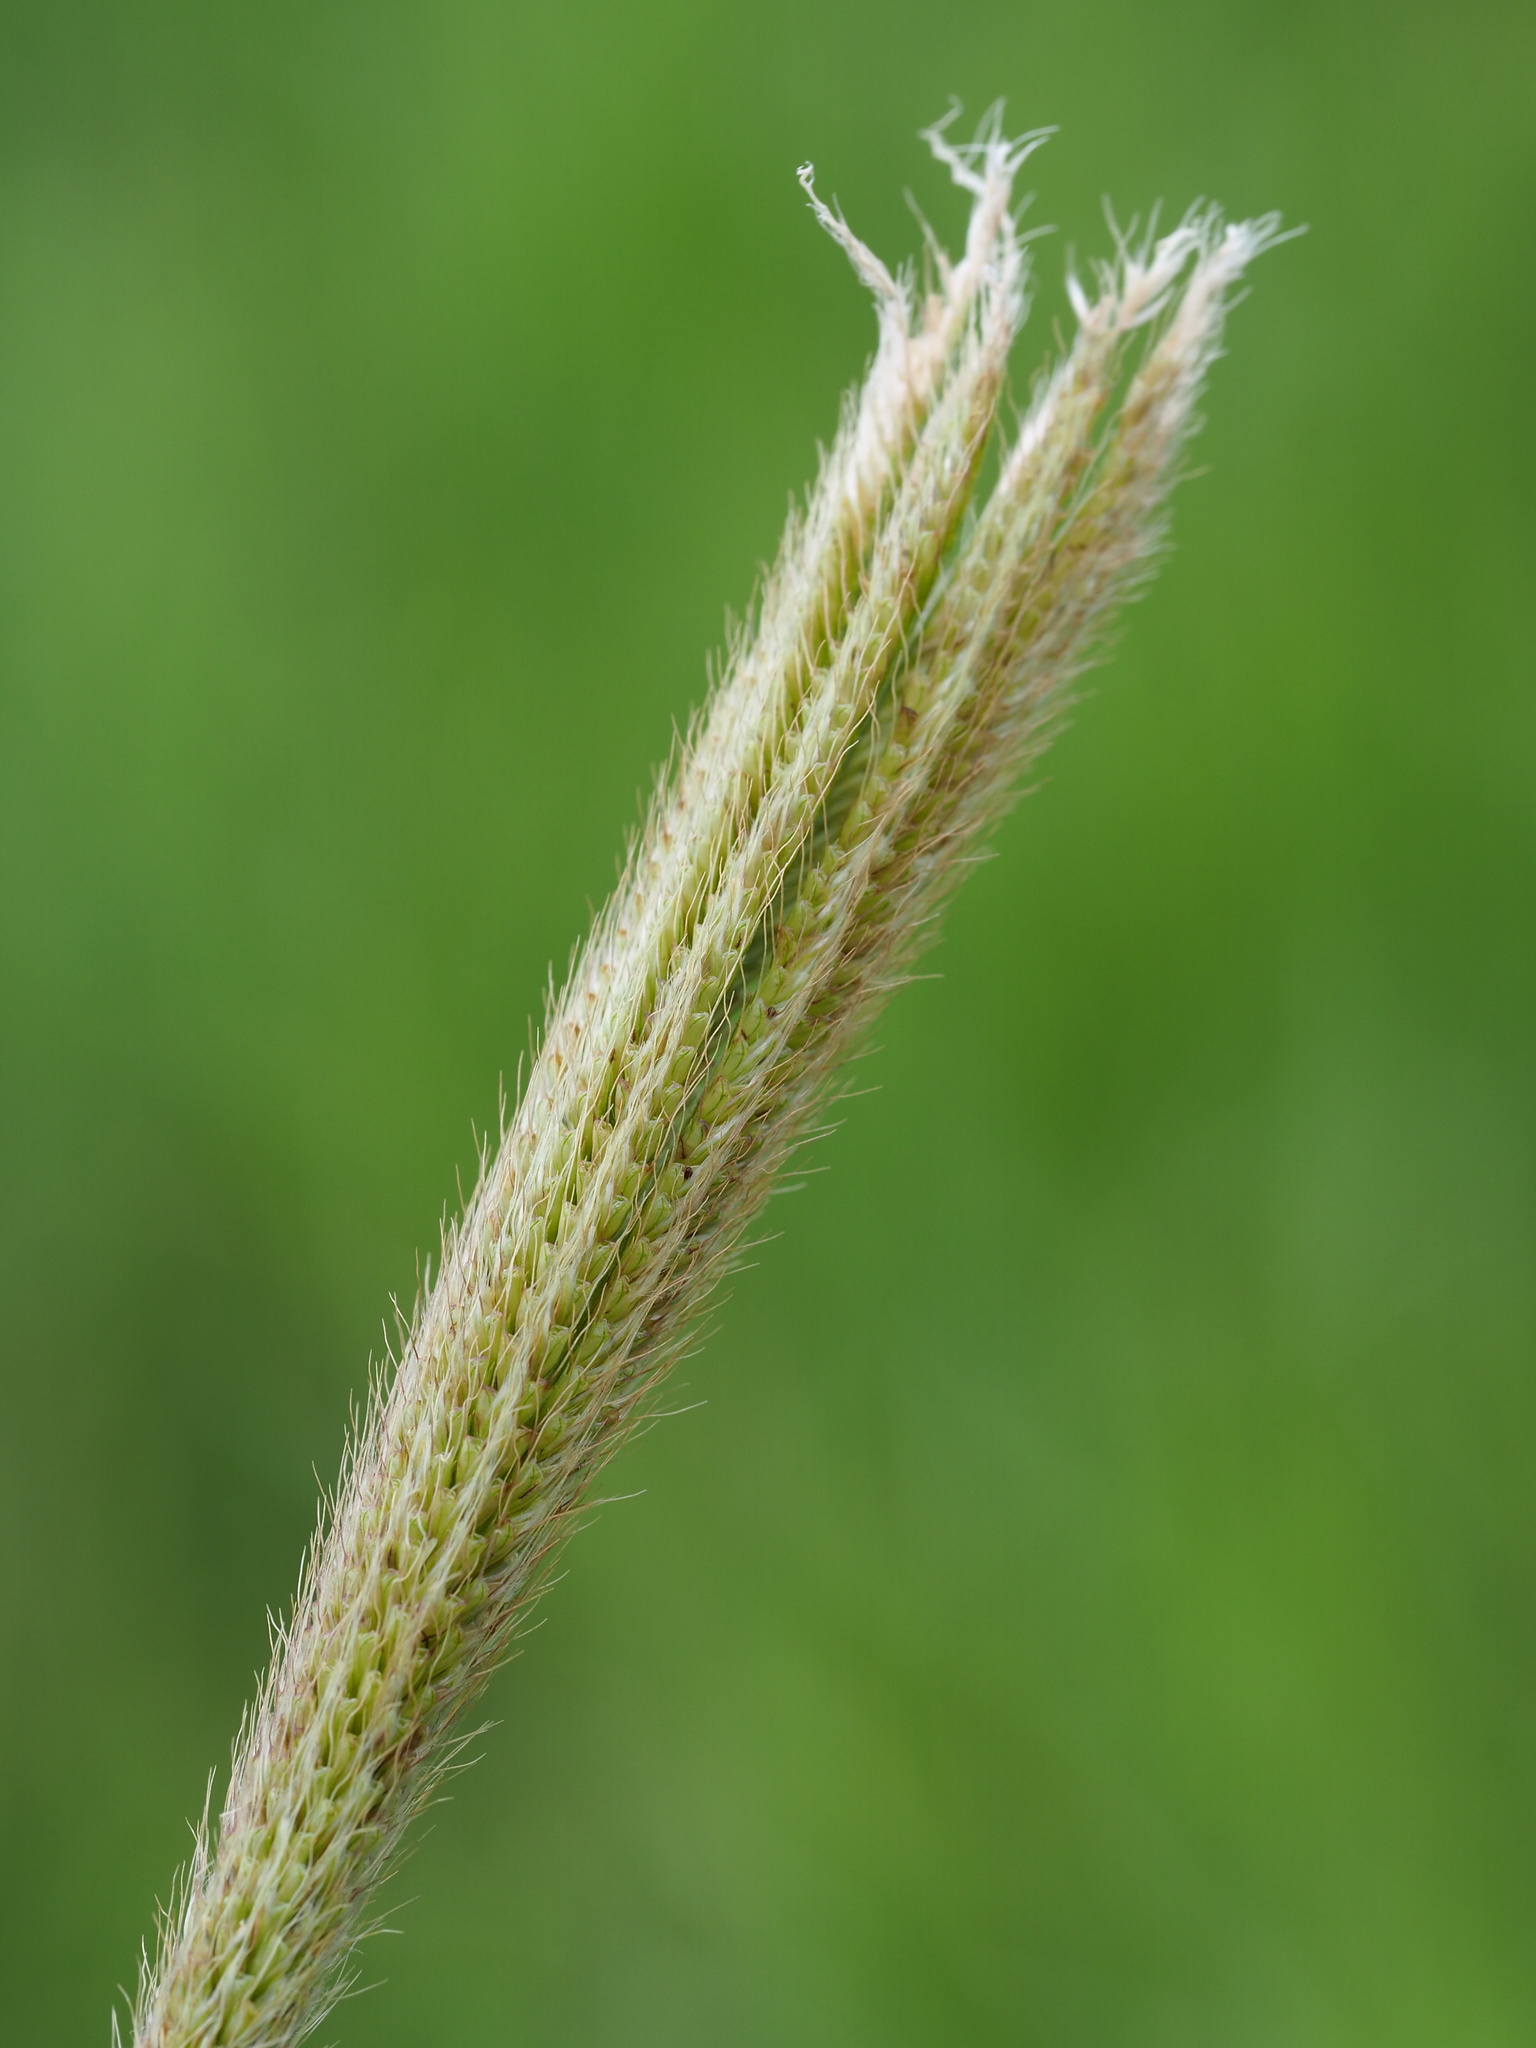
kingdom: Plantae
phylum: Tracheophyta
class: Liliopsida
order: Poales
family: Poaceae
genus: Chloris
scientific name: Chloris formosana
